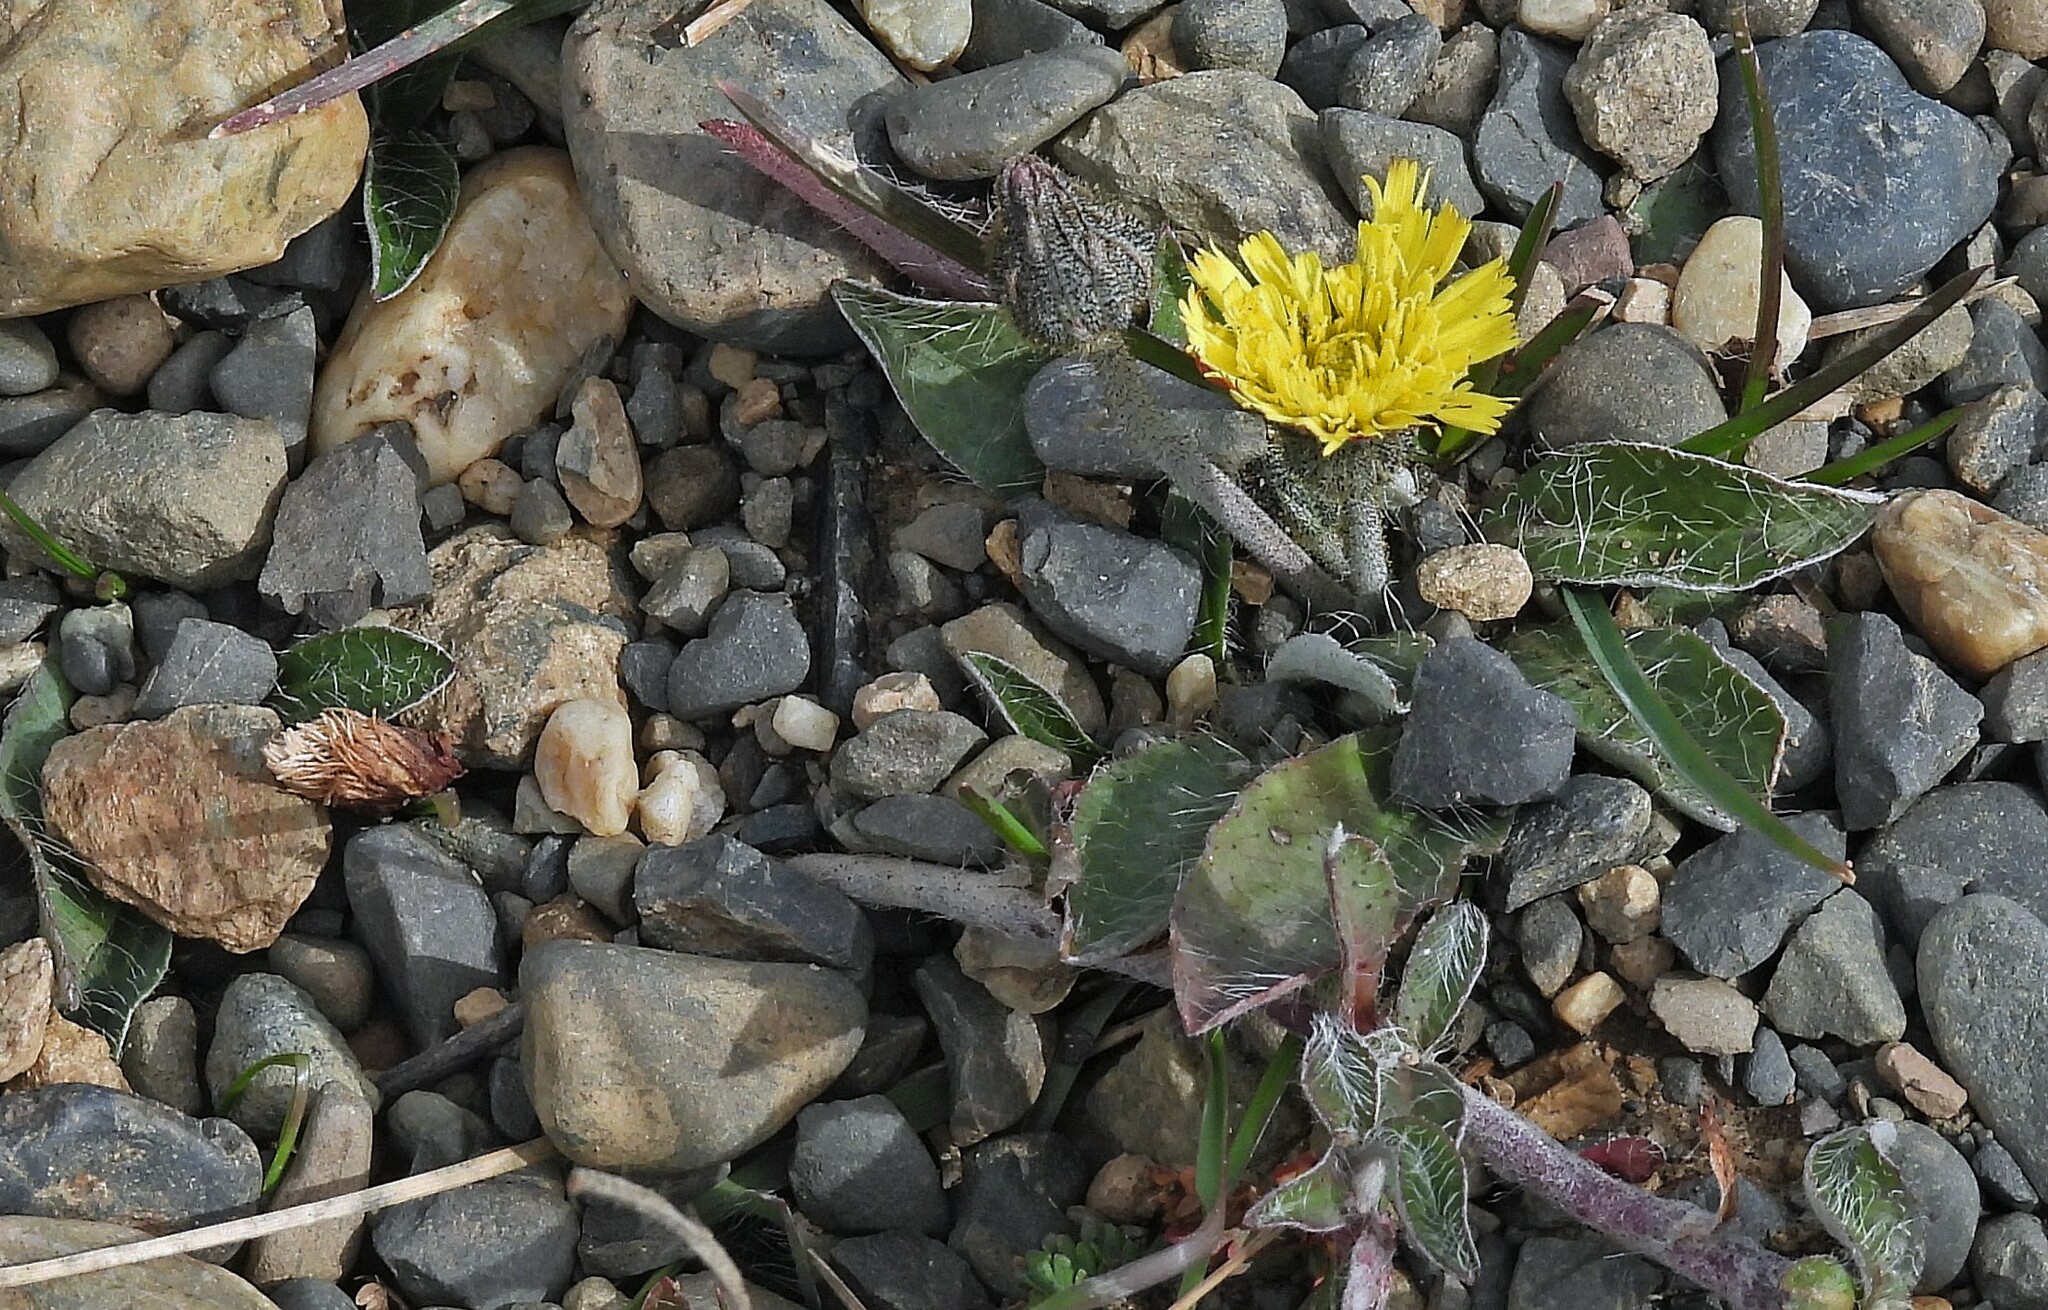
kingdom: Plantae
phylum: Tracheophyta
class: Magnoliopsida
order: Asterales
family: Asteraceae
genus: Pilosella
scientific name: Pilosella officinarum
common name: Mouse-ear hawkweed
